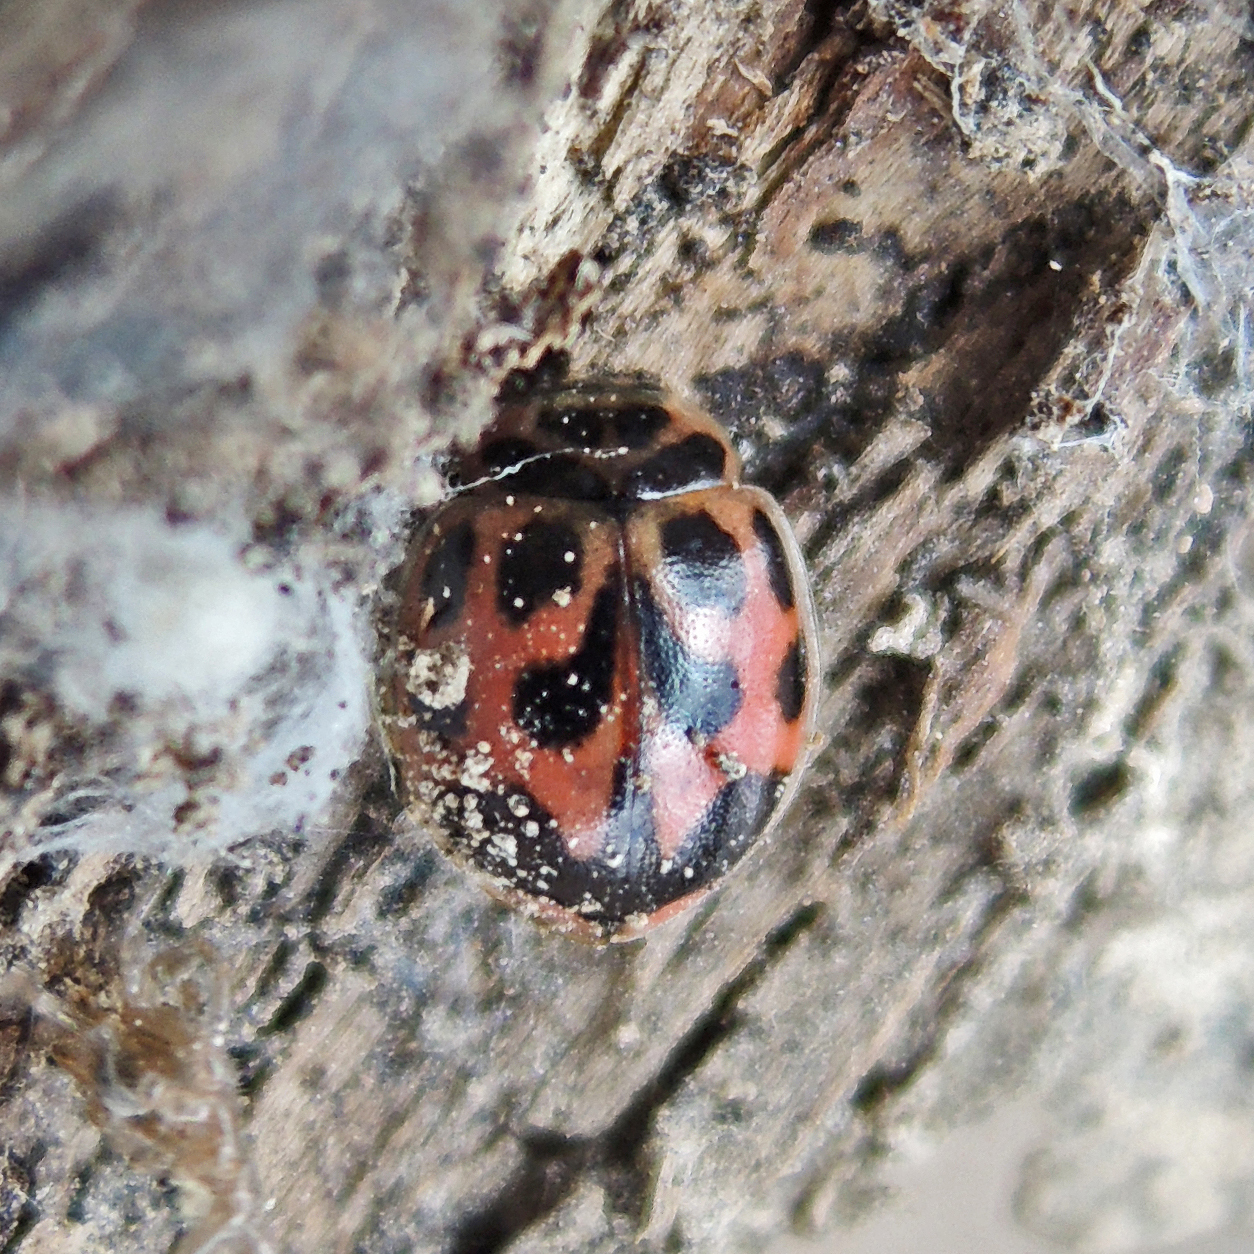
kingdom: Animalia
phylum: Arthropoda
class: Insecta
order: Coleoptera
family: Coccinellidae
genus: Neoharmonia
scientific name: Neoharmonia venusta
